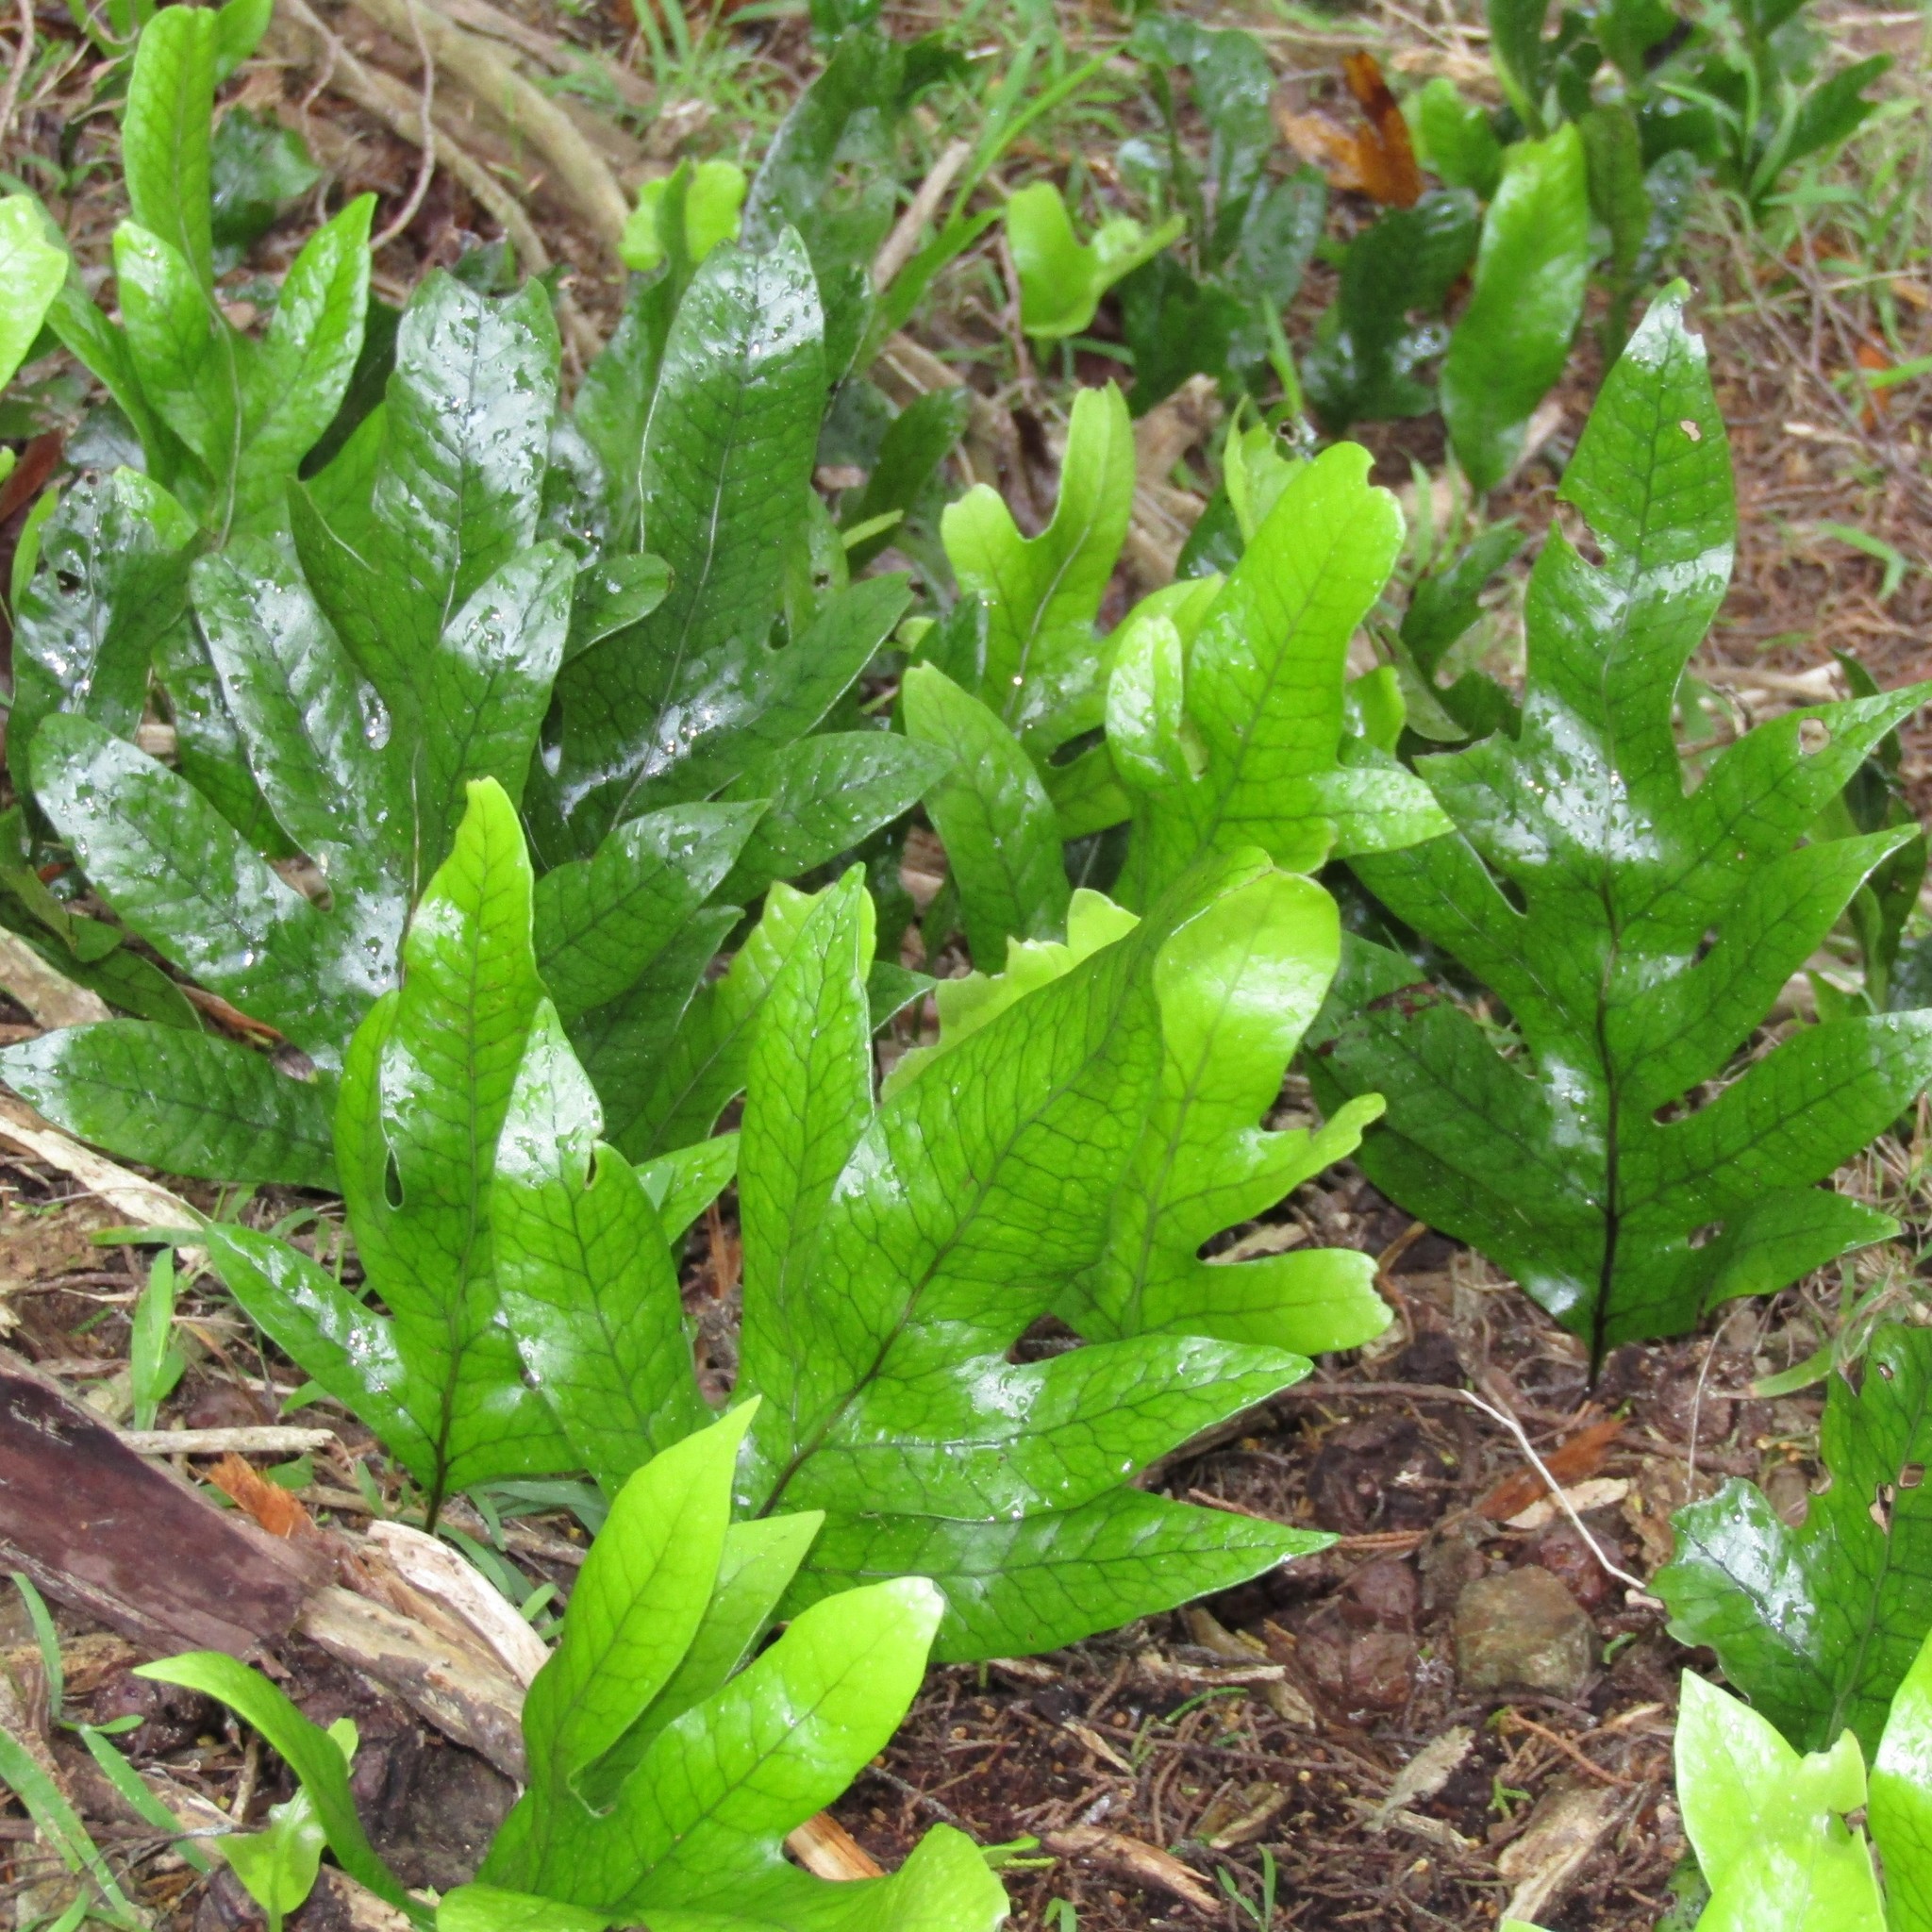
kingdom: Plantae
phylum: Tracheophyta
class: Polypodiopsida
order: Polypodiales
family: Polypodiaceae
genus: Lecanopteris
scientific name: Lecanopteris pustulata
